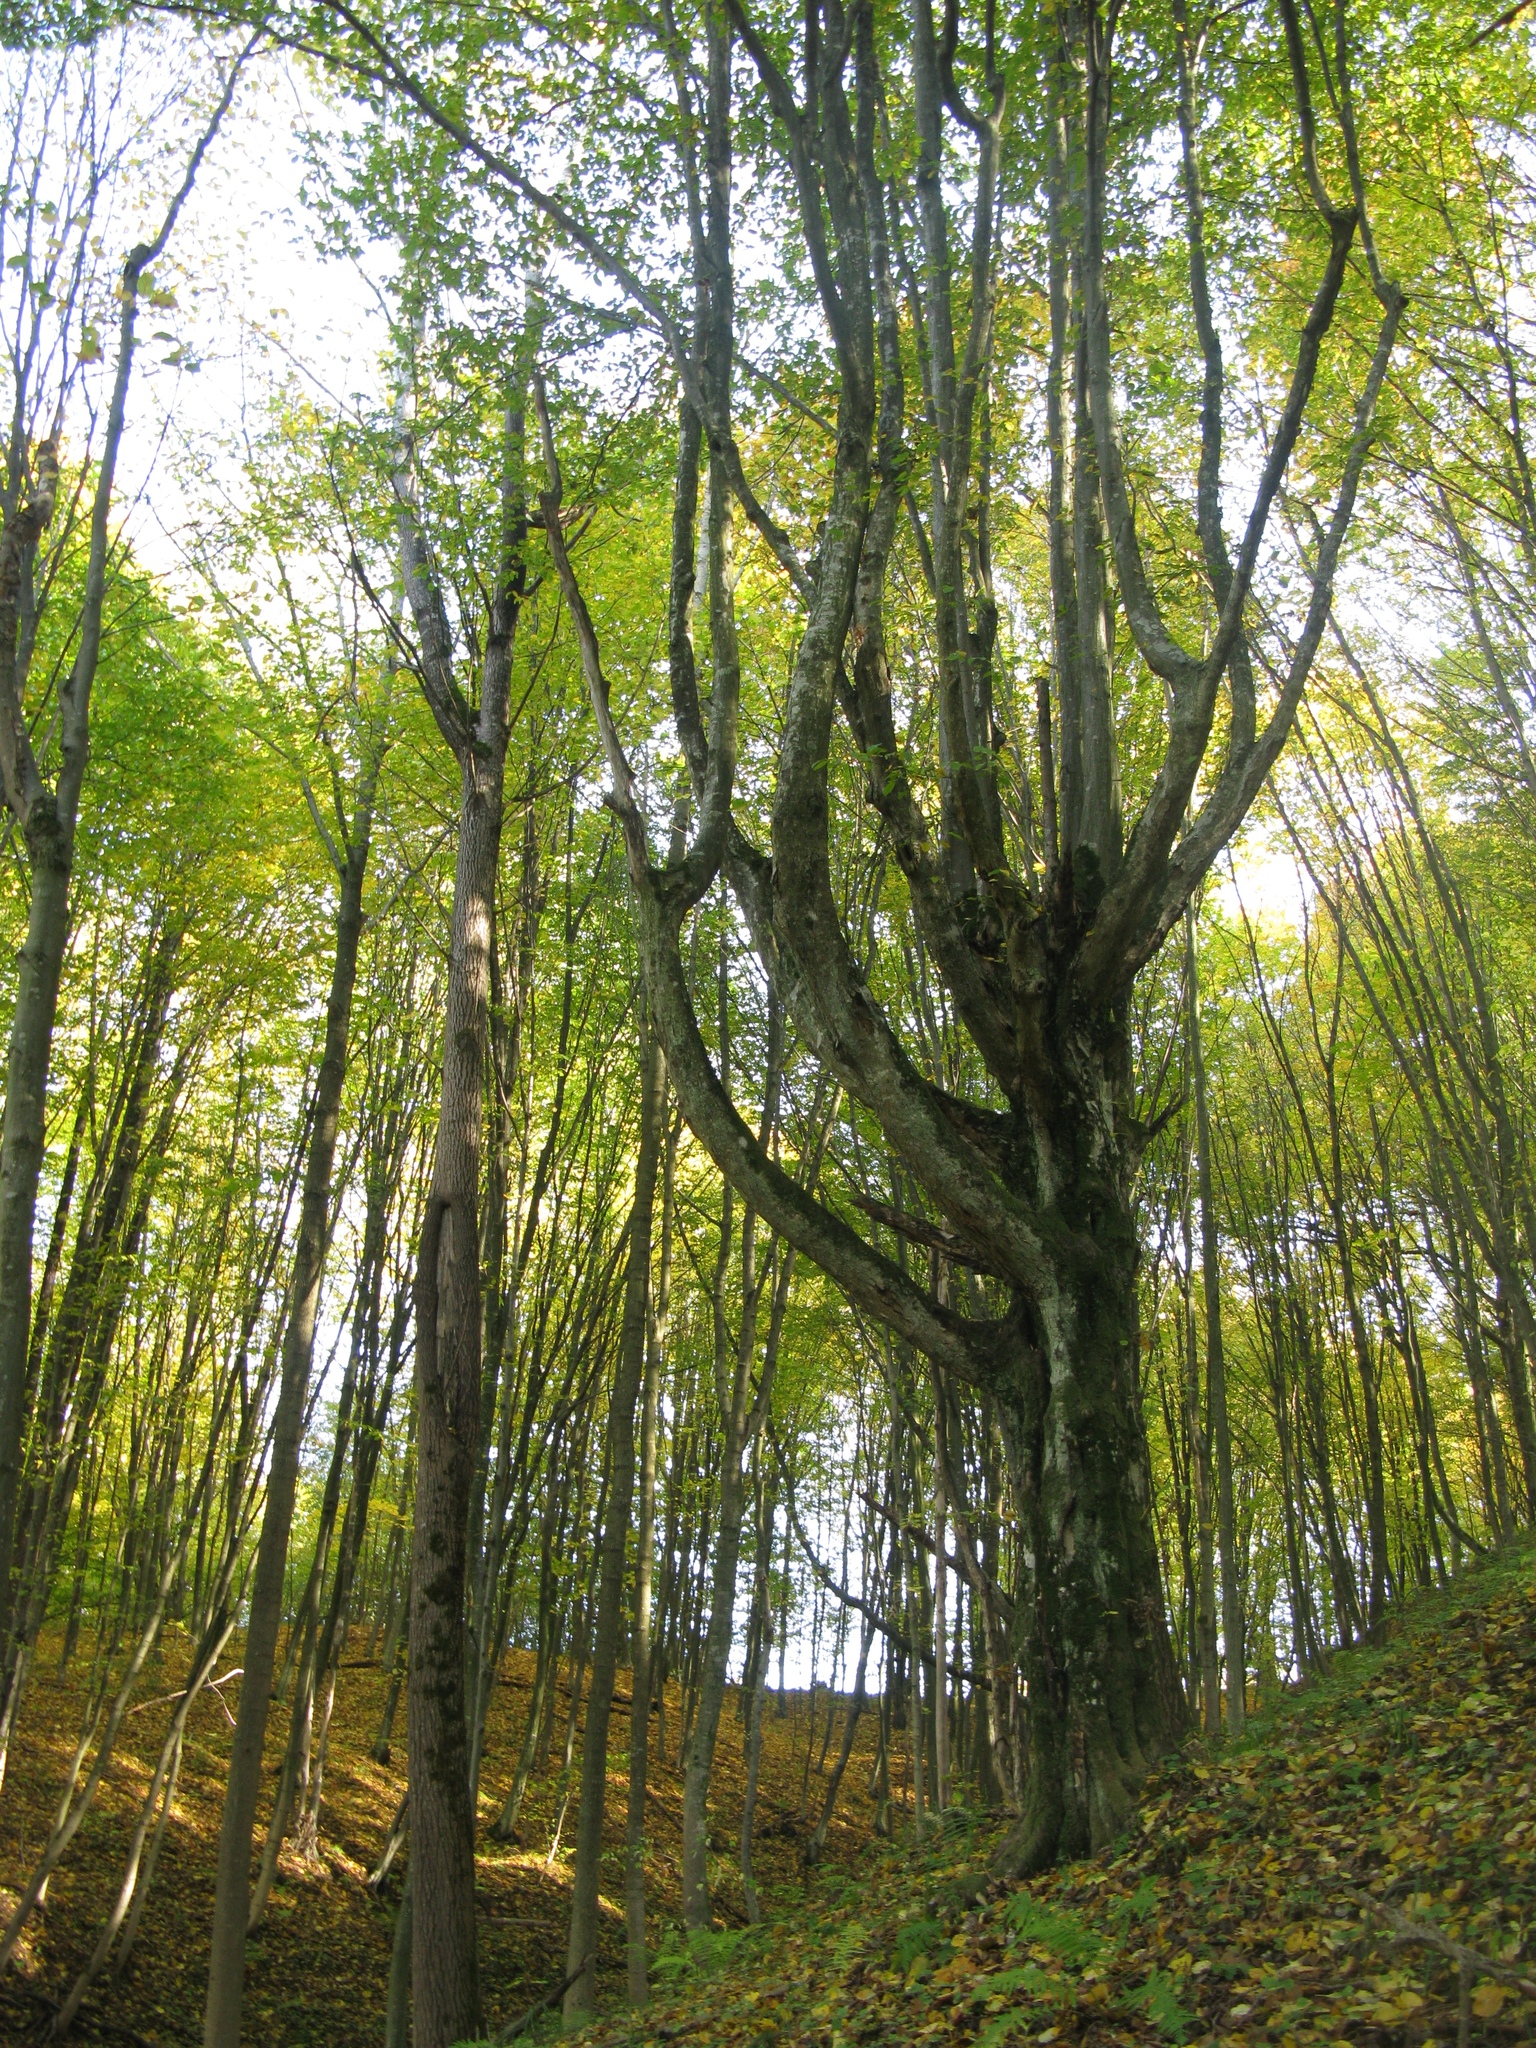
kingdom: Plantae
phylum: Tracheophyta
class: Magnoliopsida
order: Fagales
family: Betulaceae
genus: Carpinus
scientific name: Carpinus betulus
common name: Hornbeam
